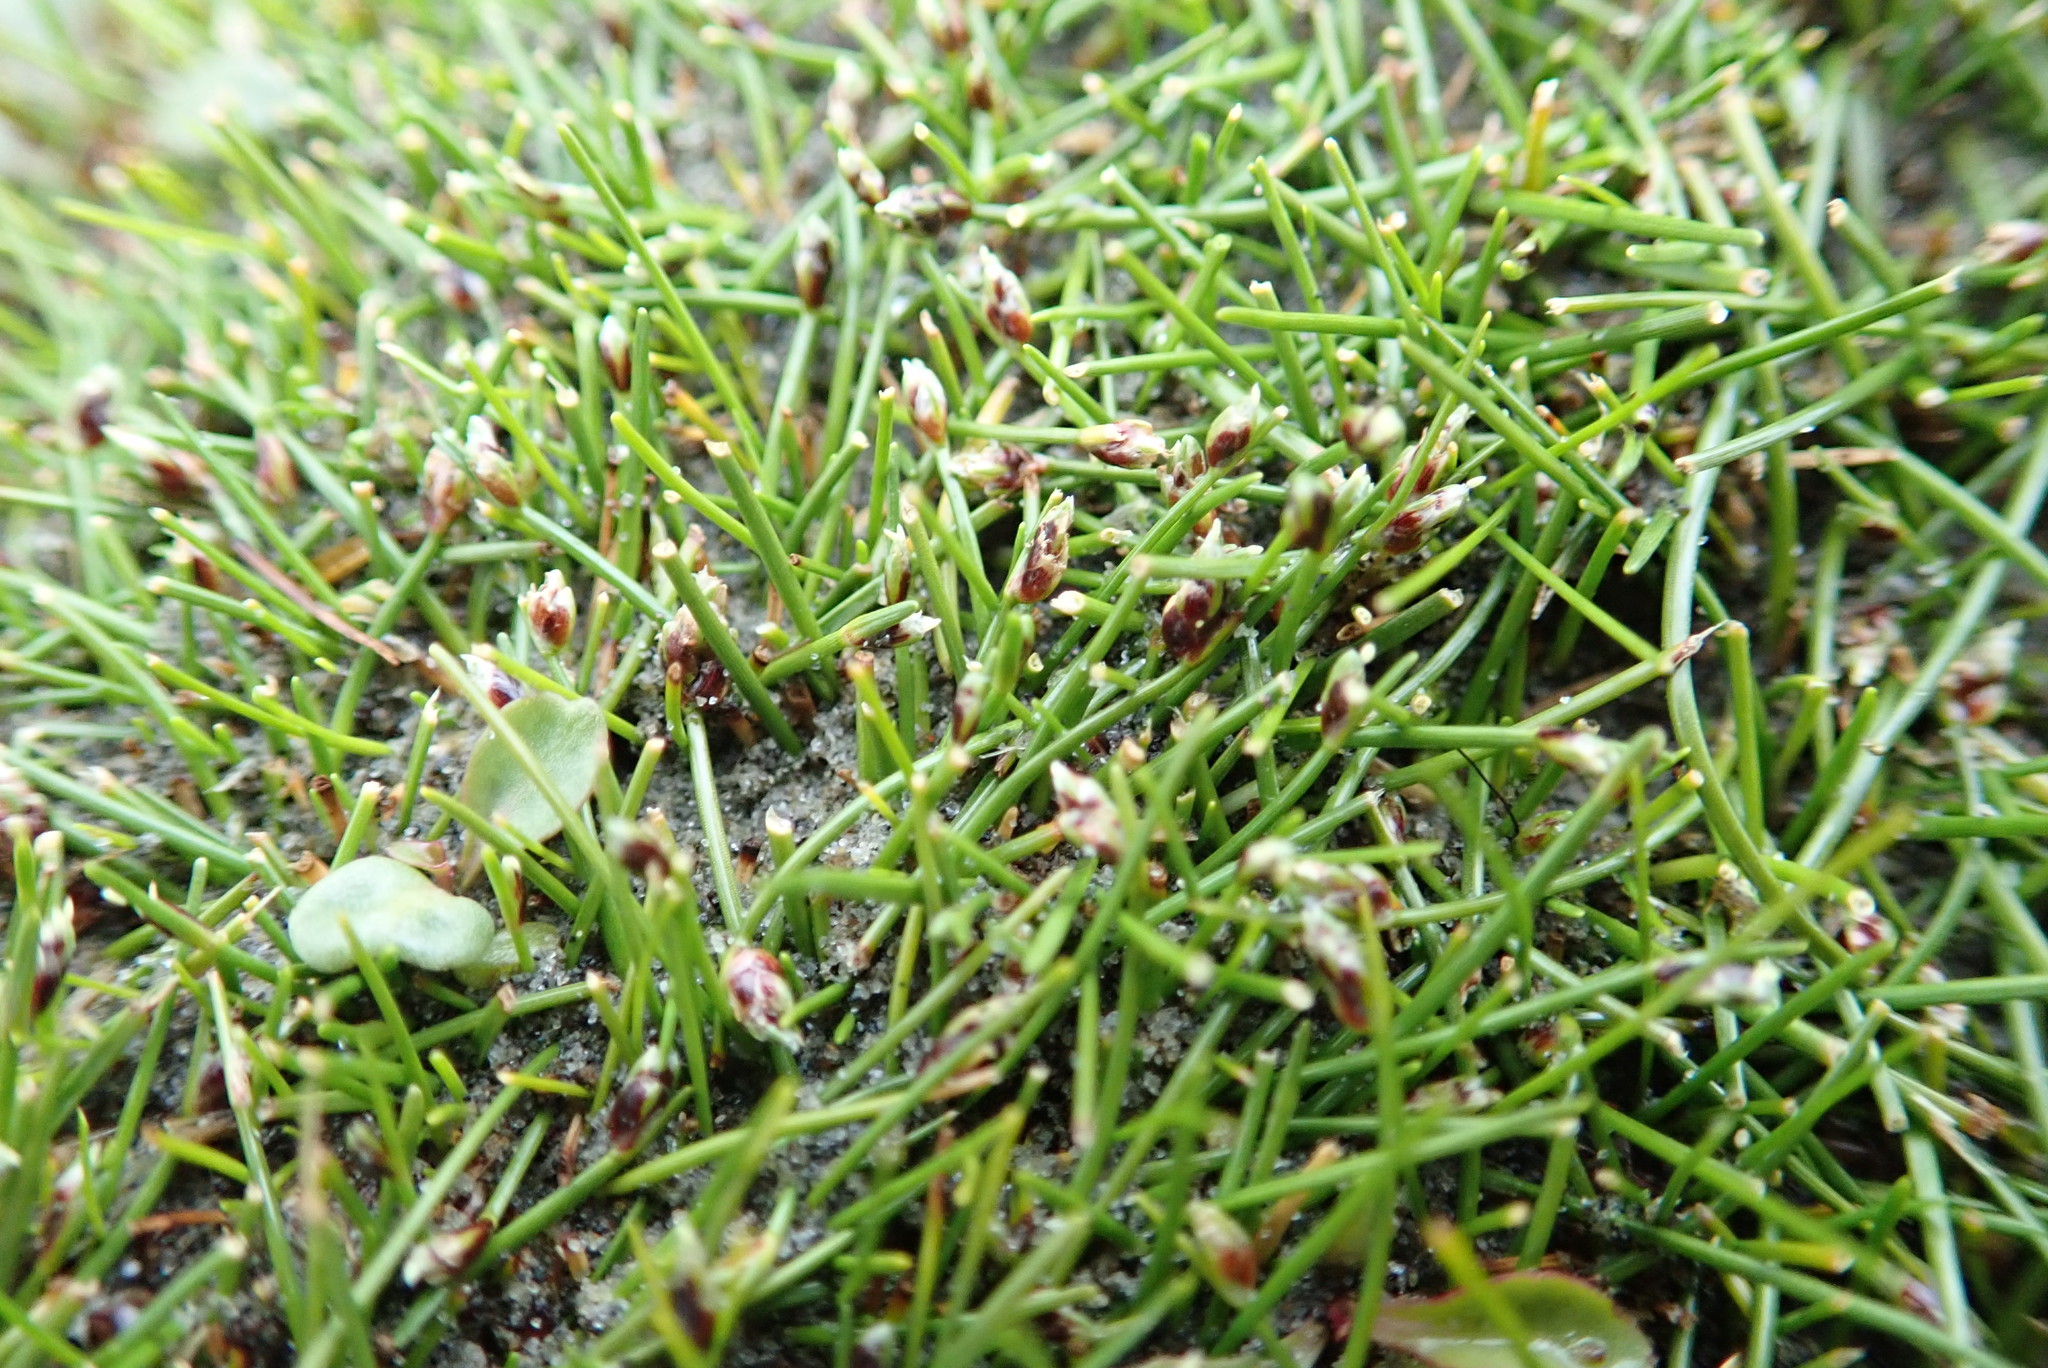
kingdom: Plantae
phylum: Tracheophyta
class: Liliopsida
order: Poales
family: Cyperaceae
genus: Isolepis
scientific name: Isolepis cernua
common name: Slender club-rush
